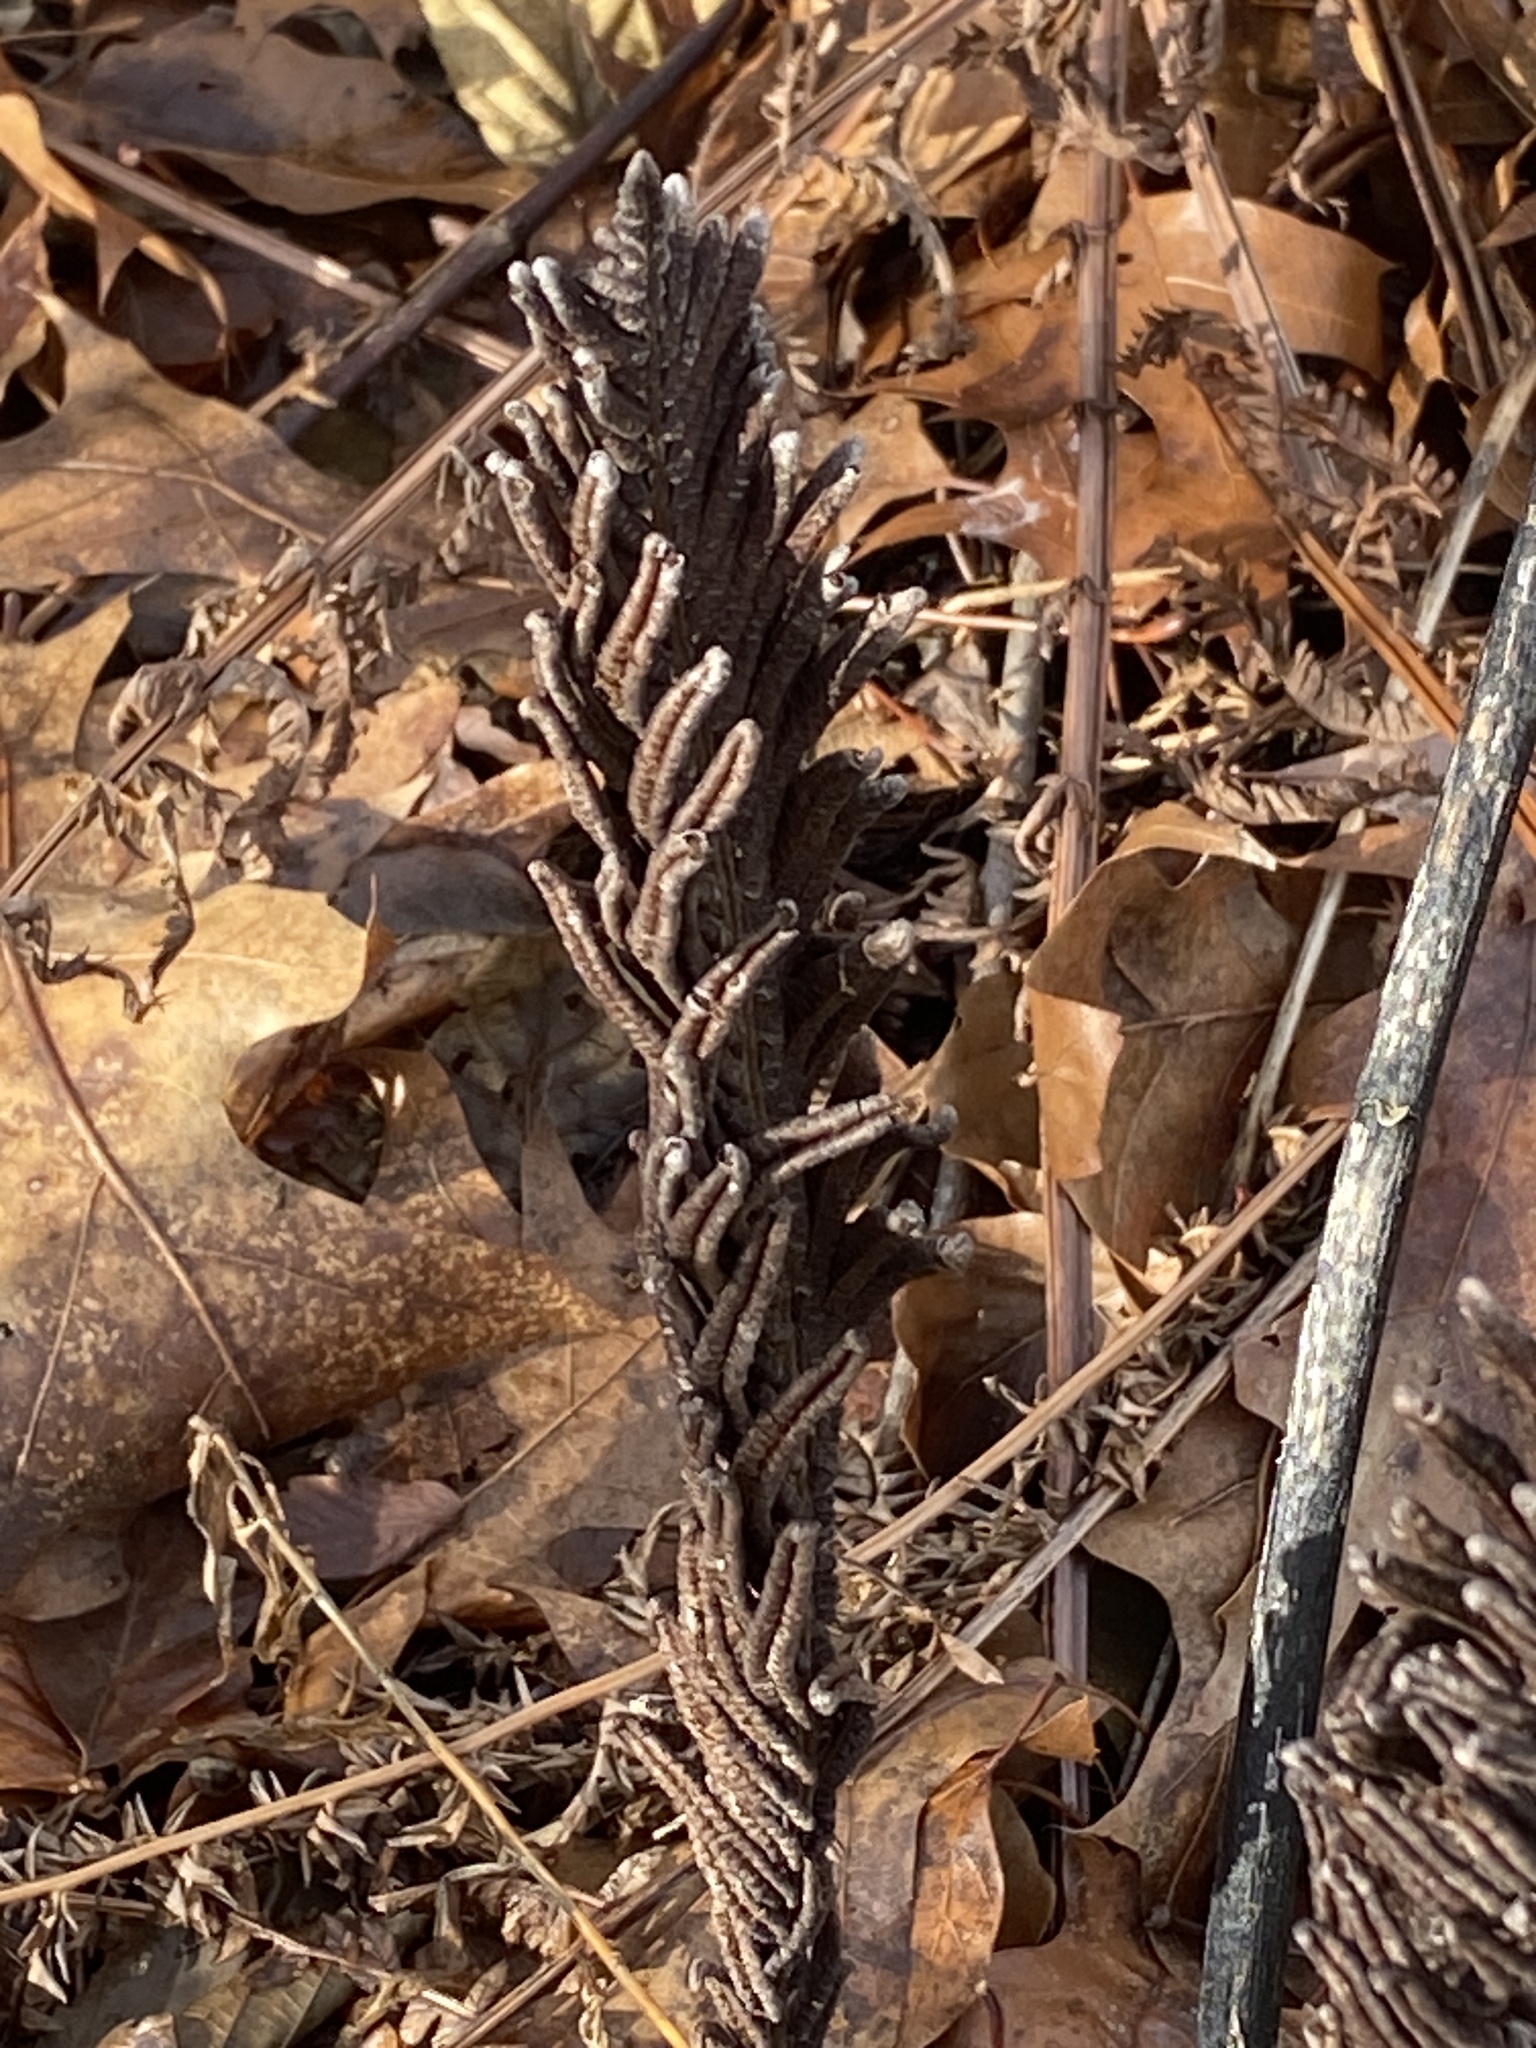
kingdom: Plantae
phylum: Tracheophyta
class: Polypodiopsida
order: Polypodiales
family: Onocleaceae
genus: Matteuccia
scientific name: Matteuccia struthiopteris
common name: Ostrich fern
